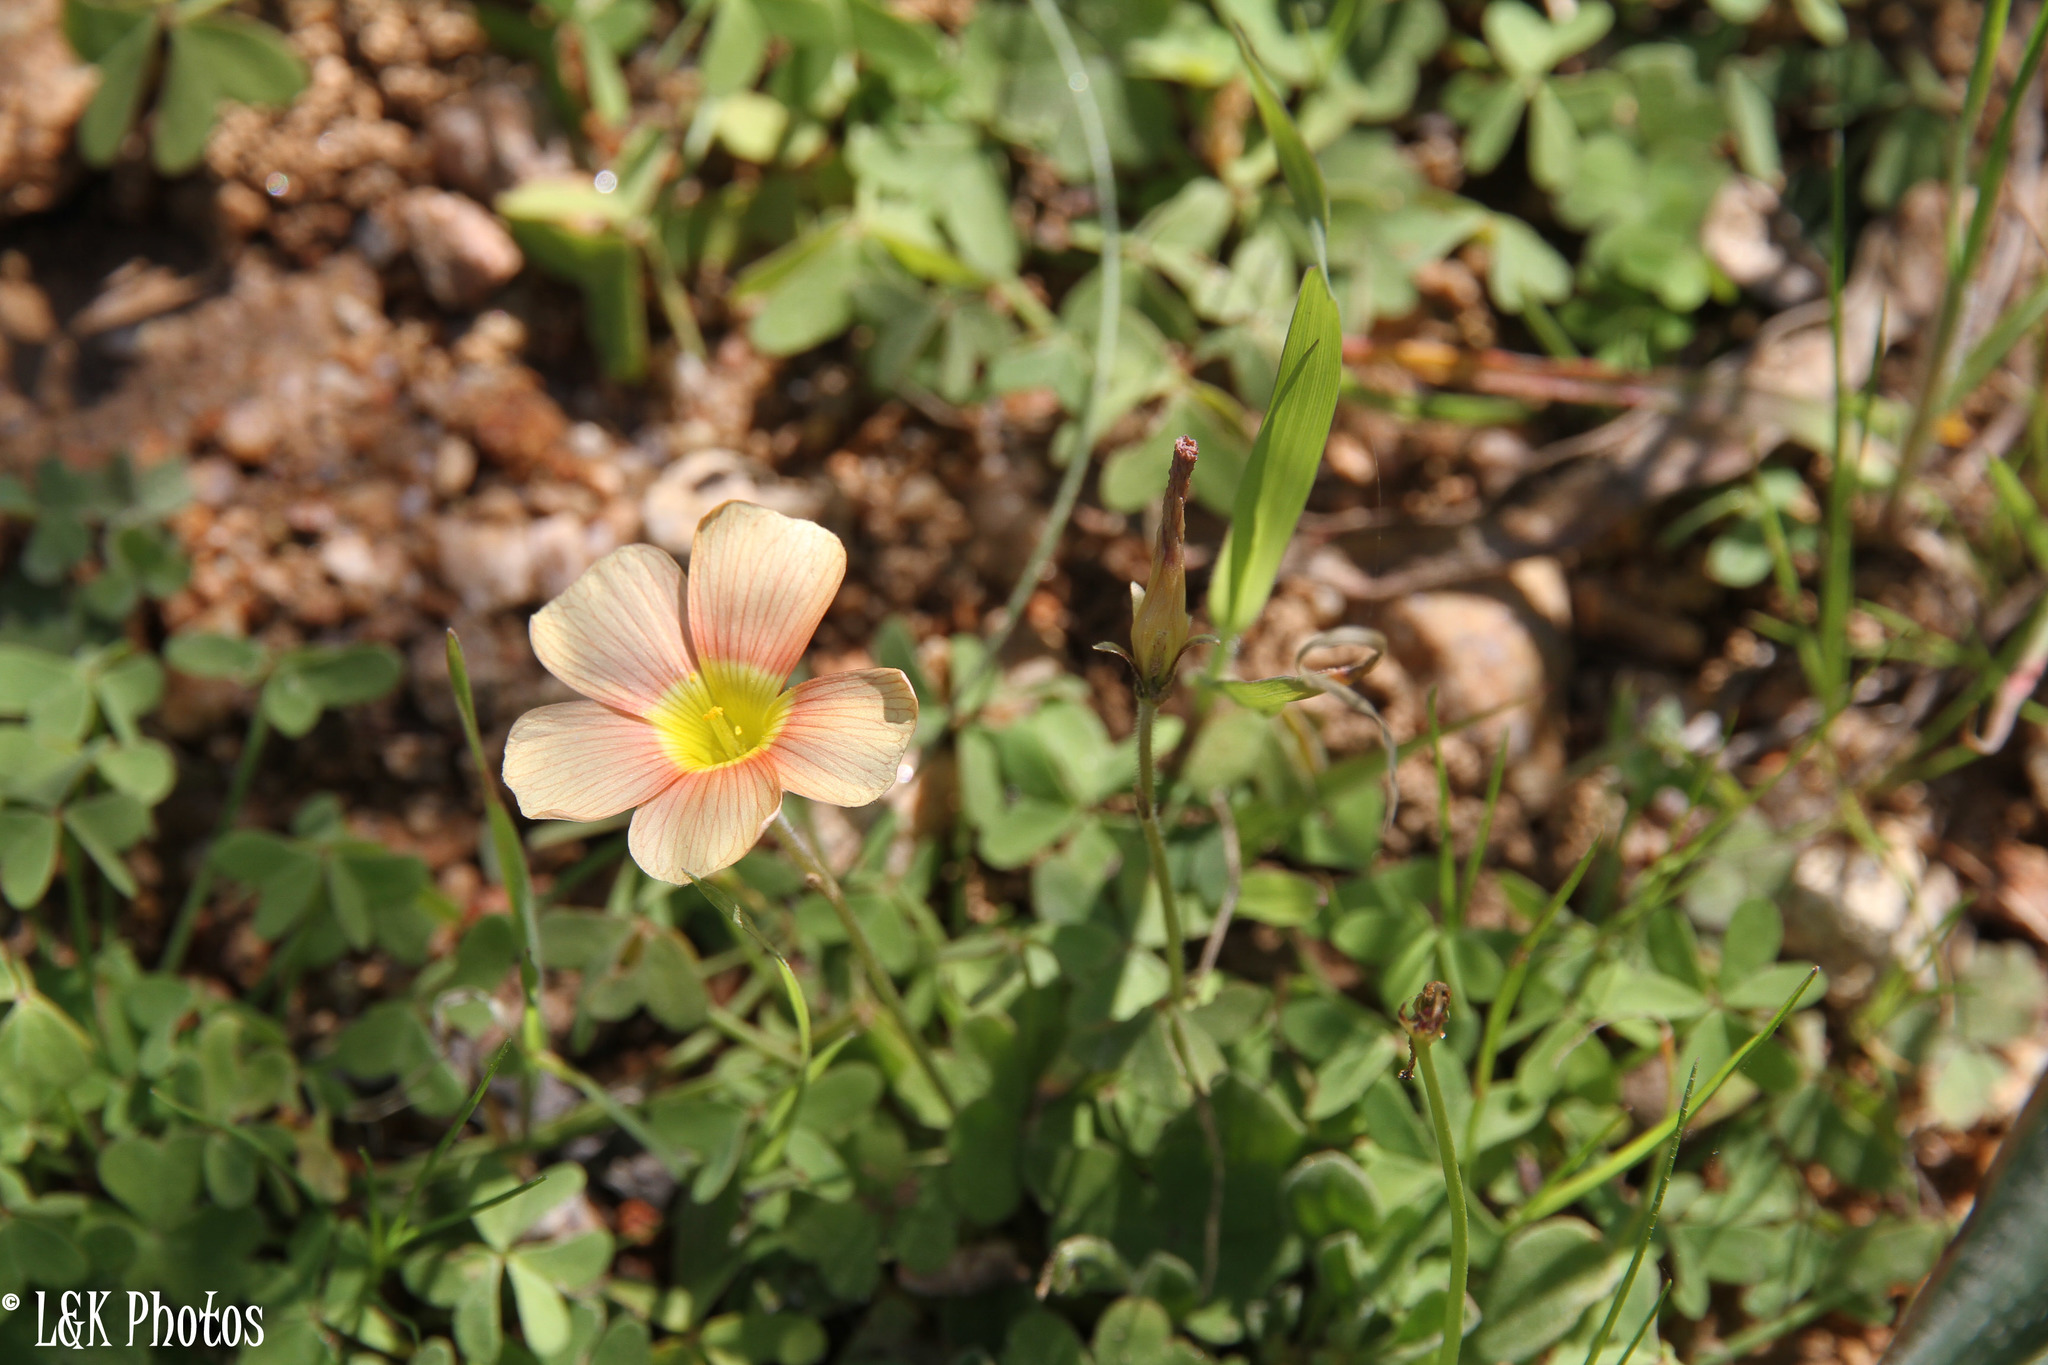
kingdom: Plantae
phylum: Tracheophyta
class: Magnoliopsida
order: Oxalidales
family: Oxalidaceae
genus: Oxalis
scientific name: Oxalis obtusa
